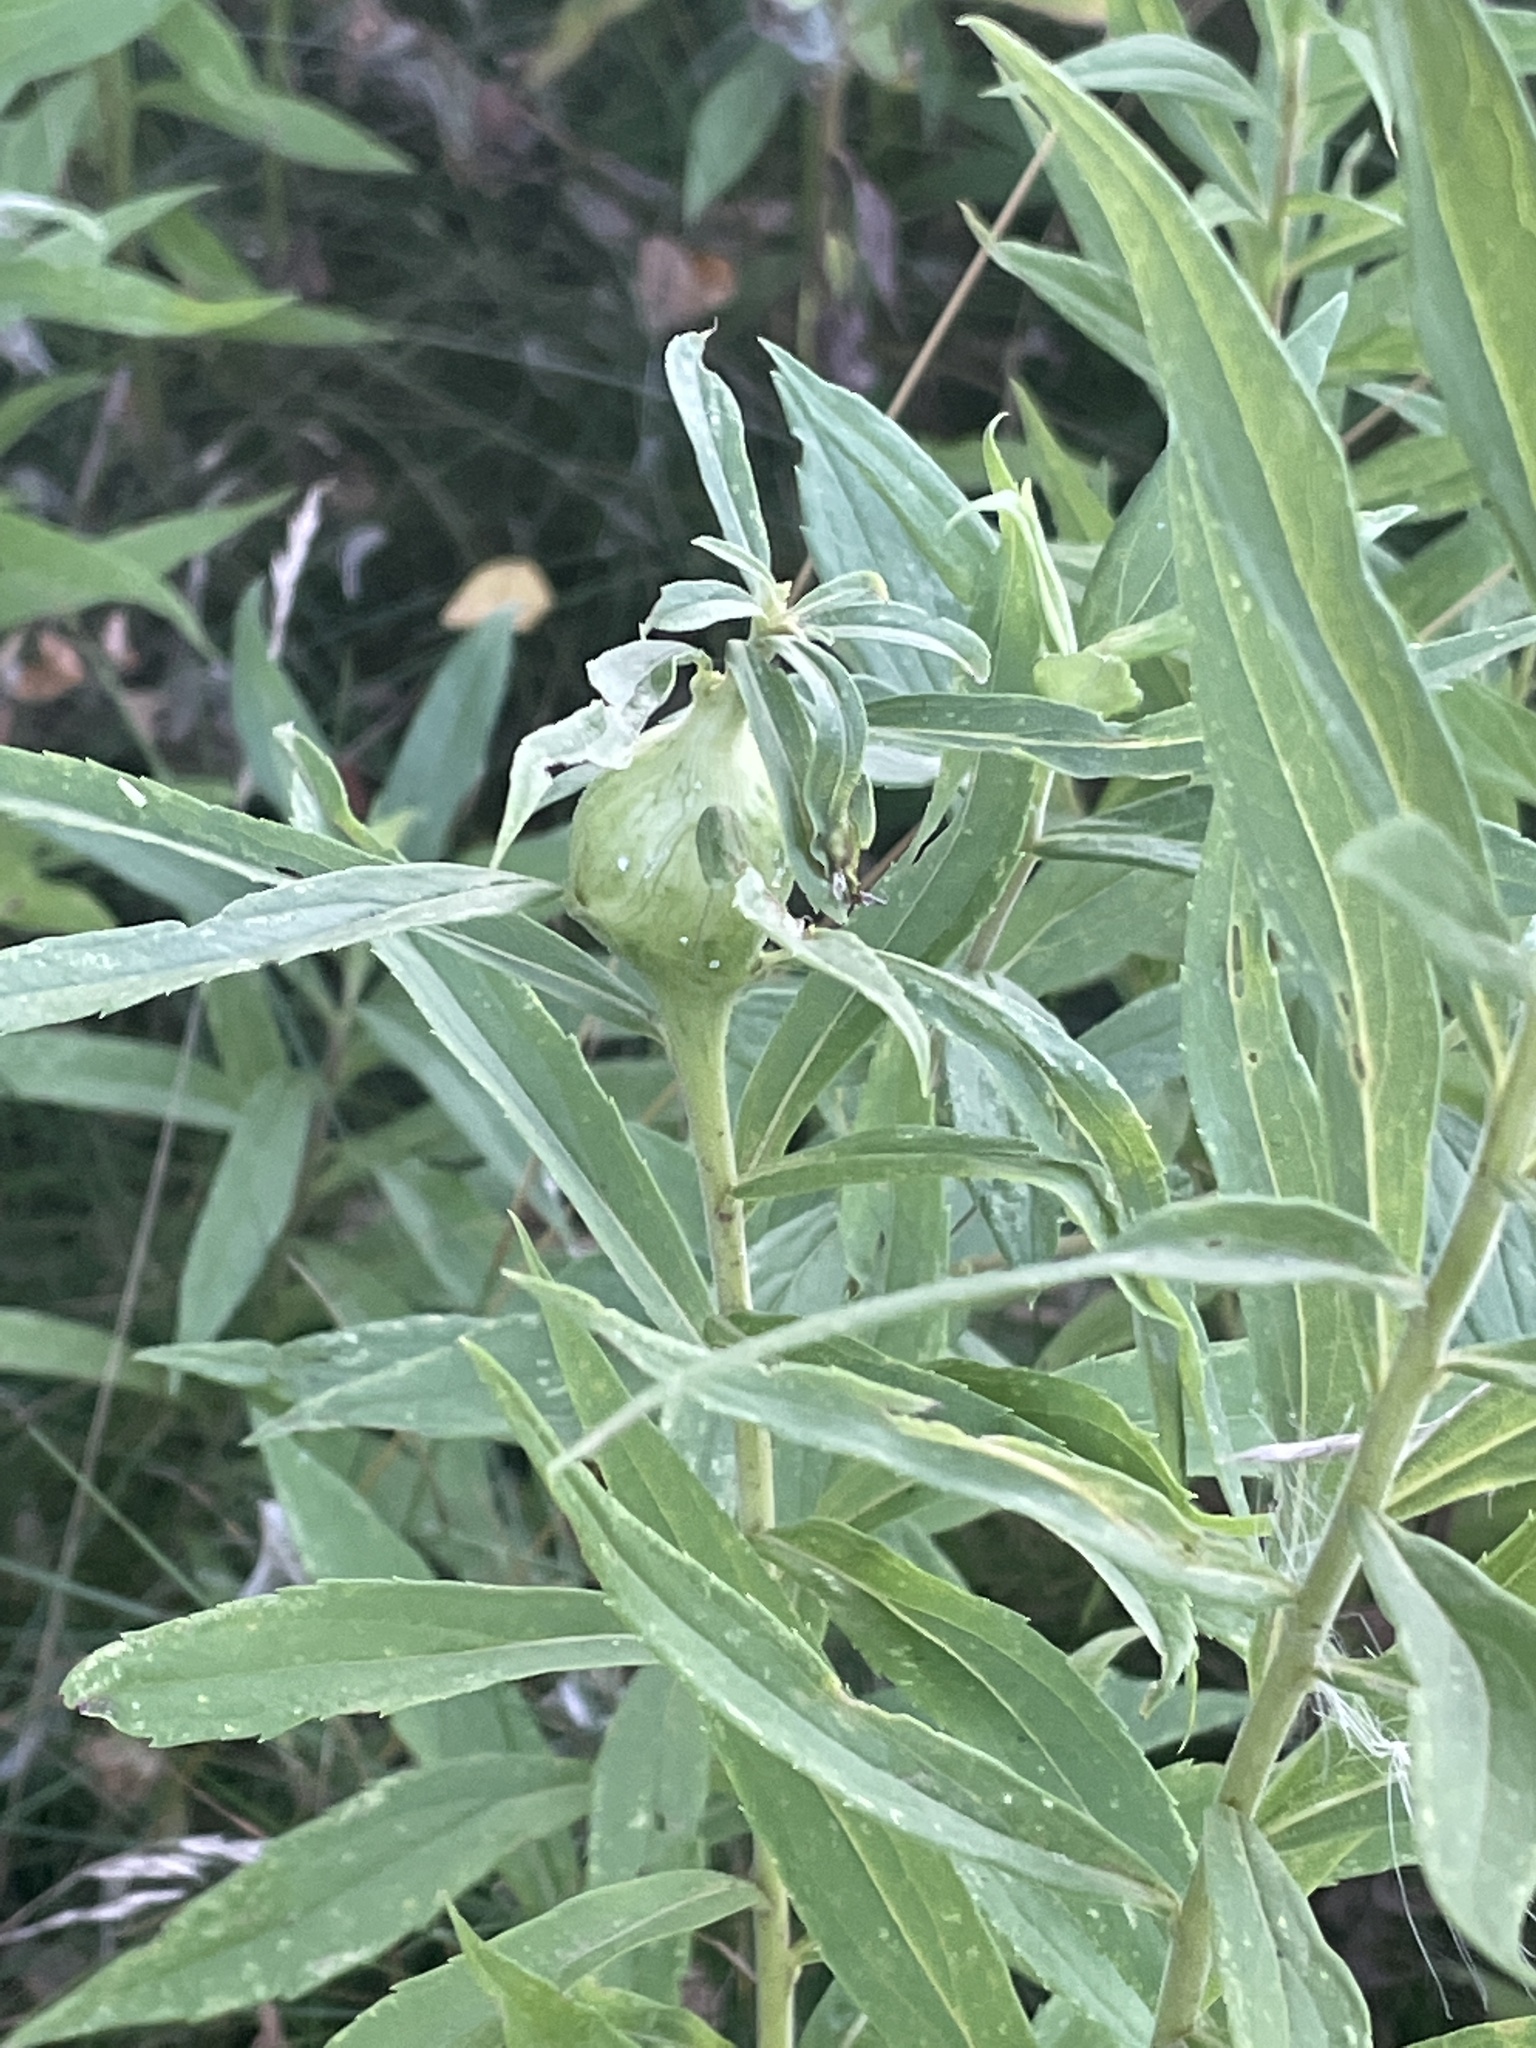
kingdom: Animalia
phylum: Arthropoda
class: Insecta
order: Diptera
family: Tephritidae
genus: Eurosta
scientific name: Eurosta solidaginis
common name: Goldenrod gall fly
